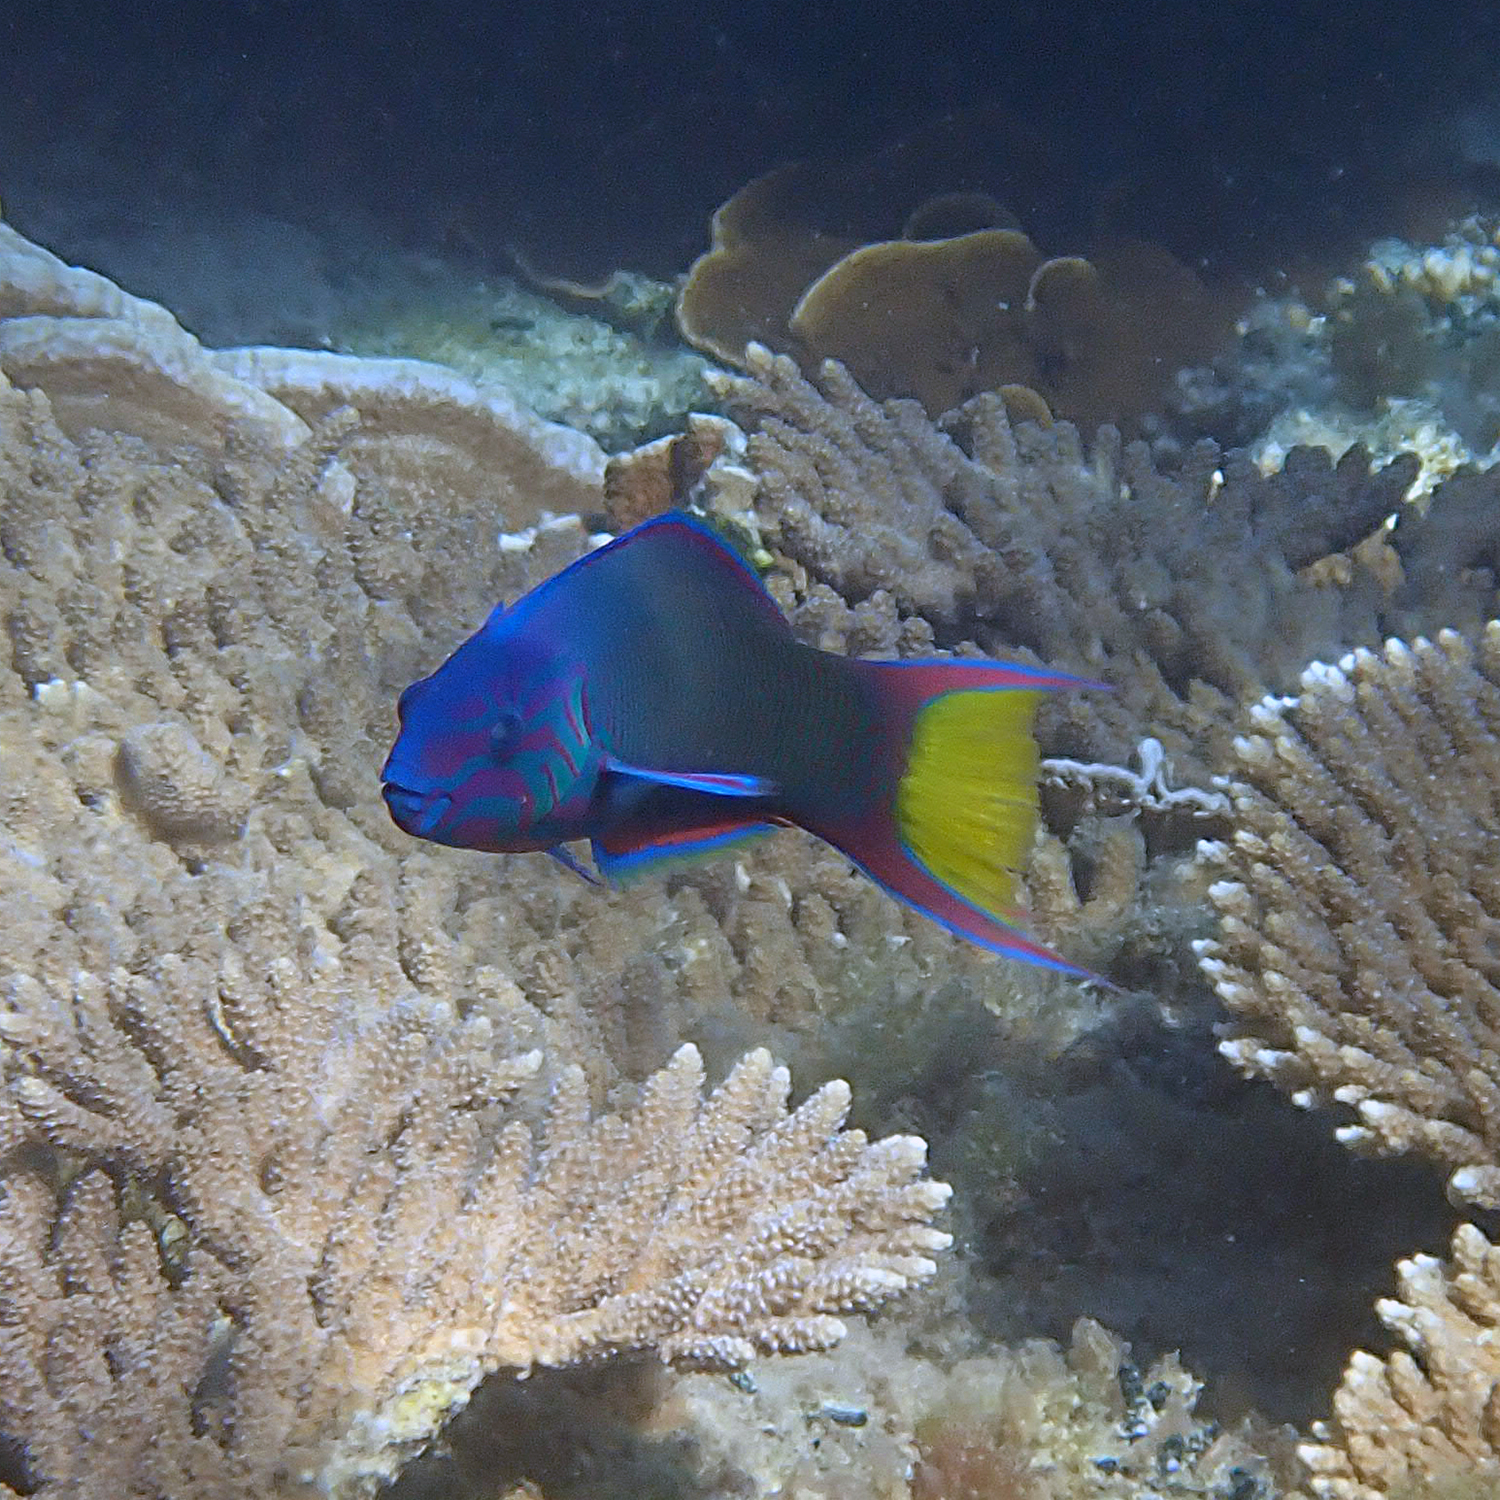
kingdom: Animalia
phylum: Chordata
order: Perciformes
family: Labridae
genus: Thalassoma
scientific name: Thalassoma lunare
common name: Blue wrasse
